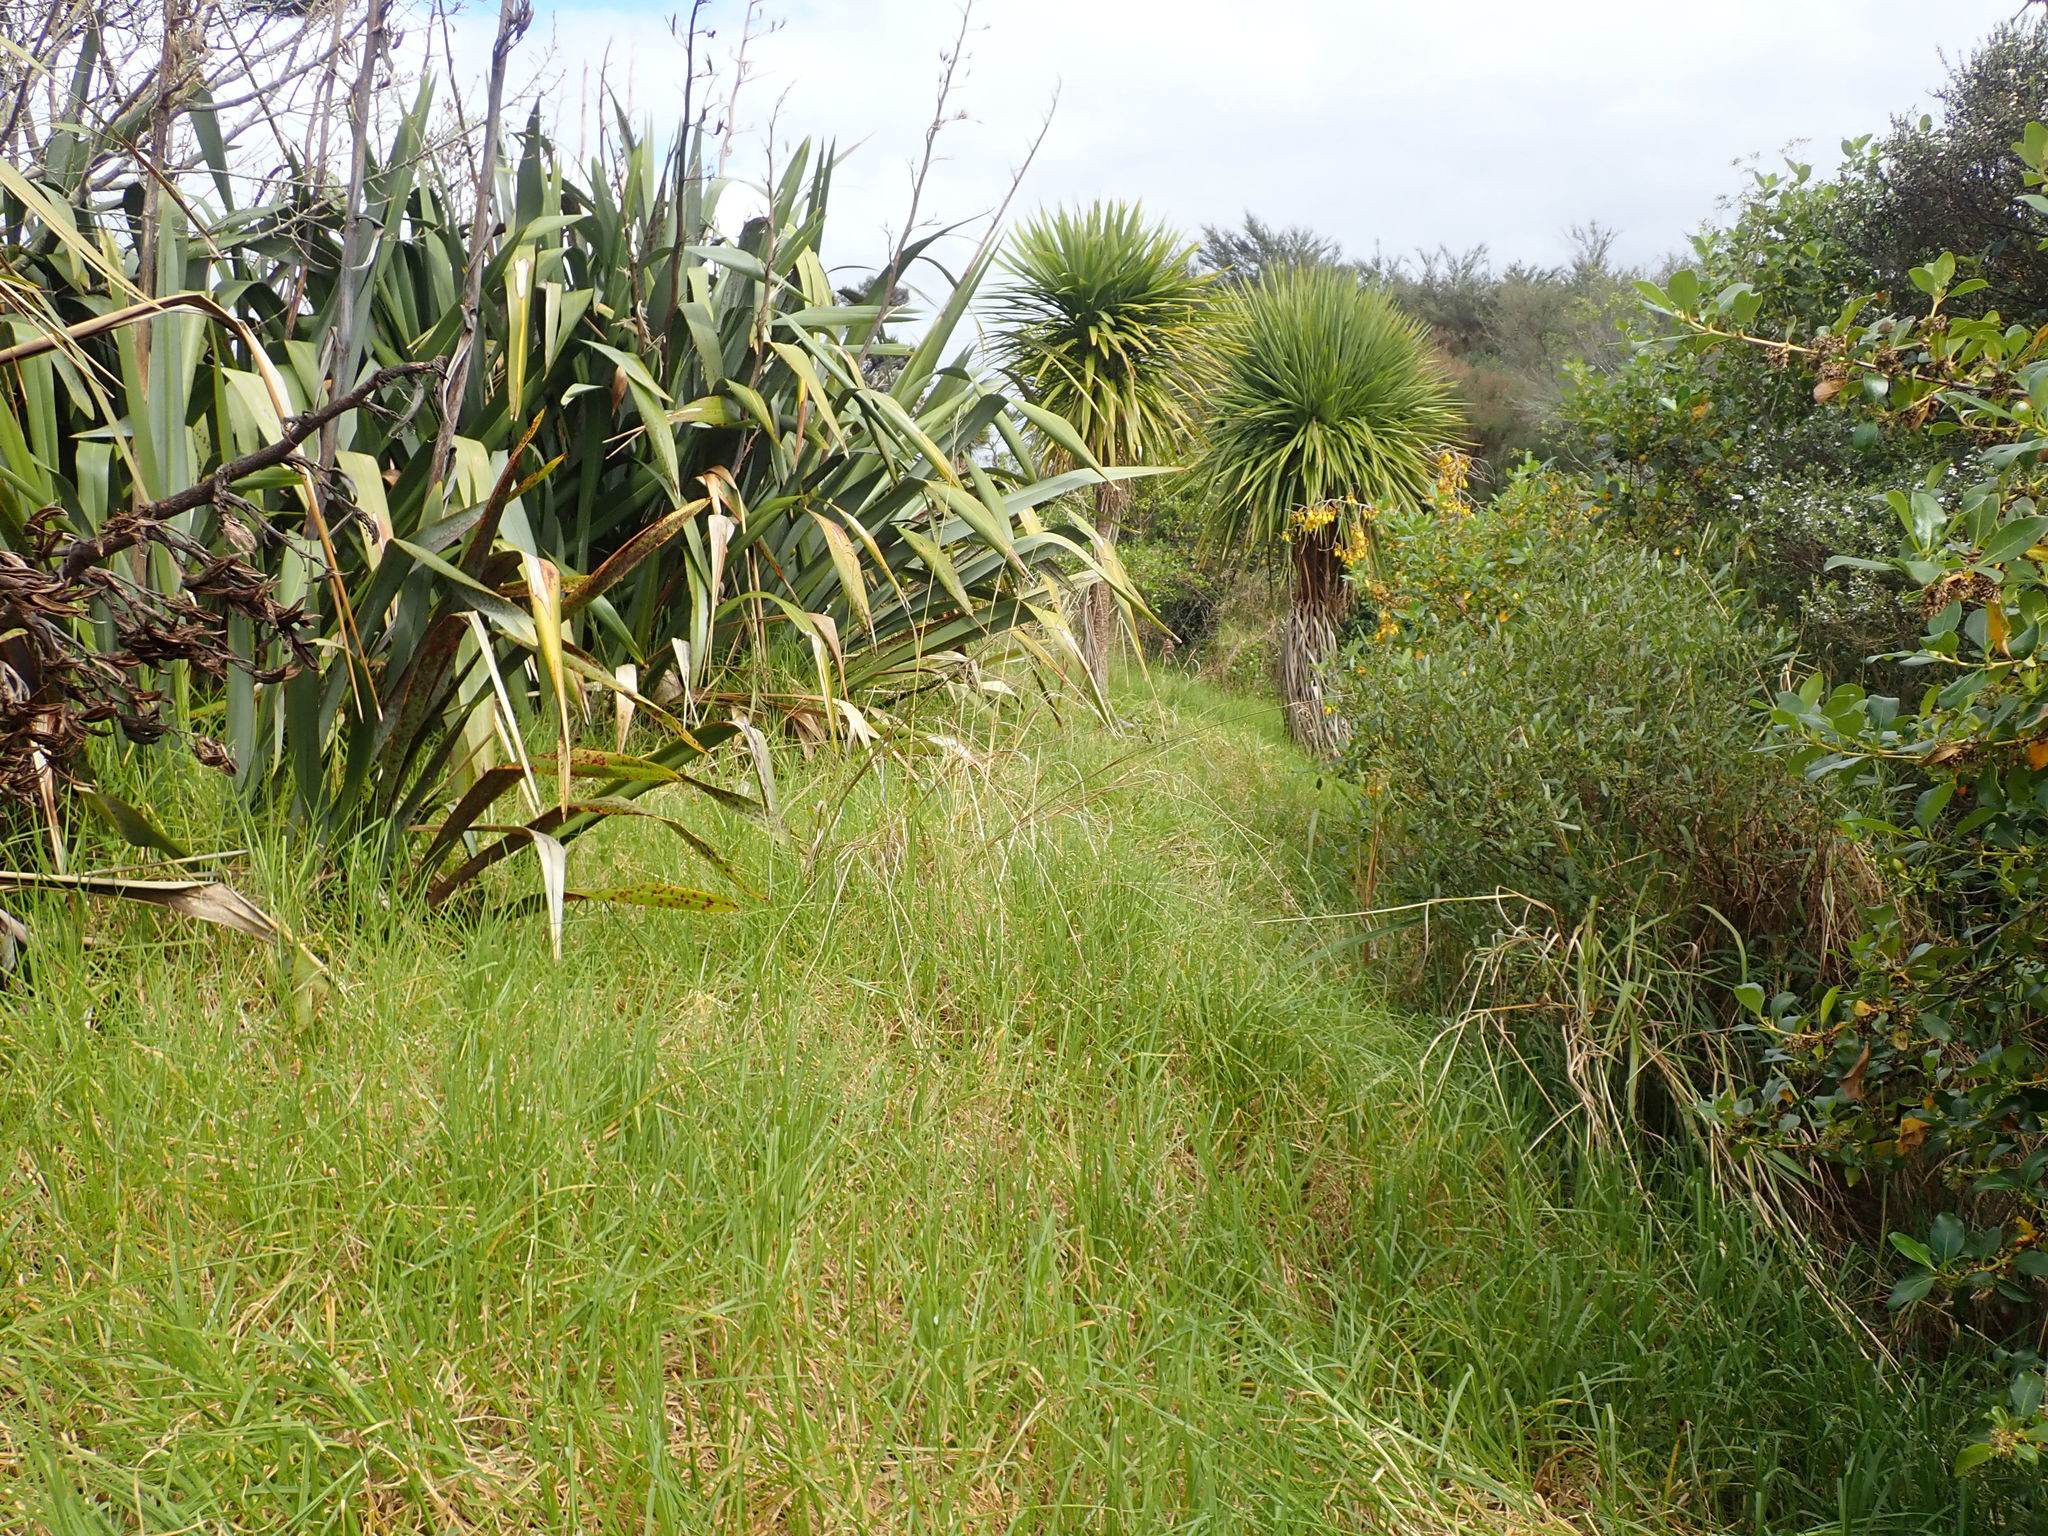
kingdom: Plantae
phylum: Tracheophyta
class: Liliopsida
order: Poales
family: Poaceae
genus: Cenchrus
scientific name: Cenchrus clandestinus
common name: Kikuyugrass
